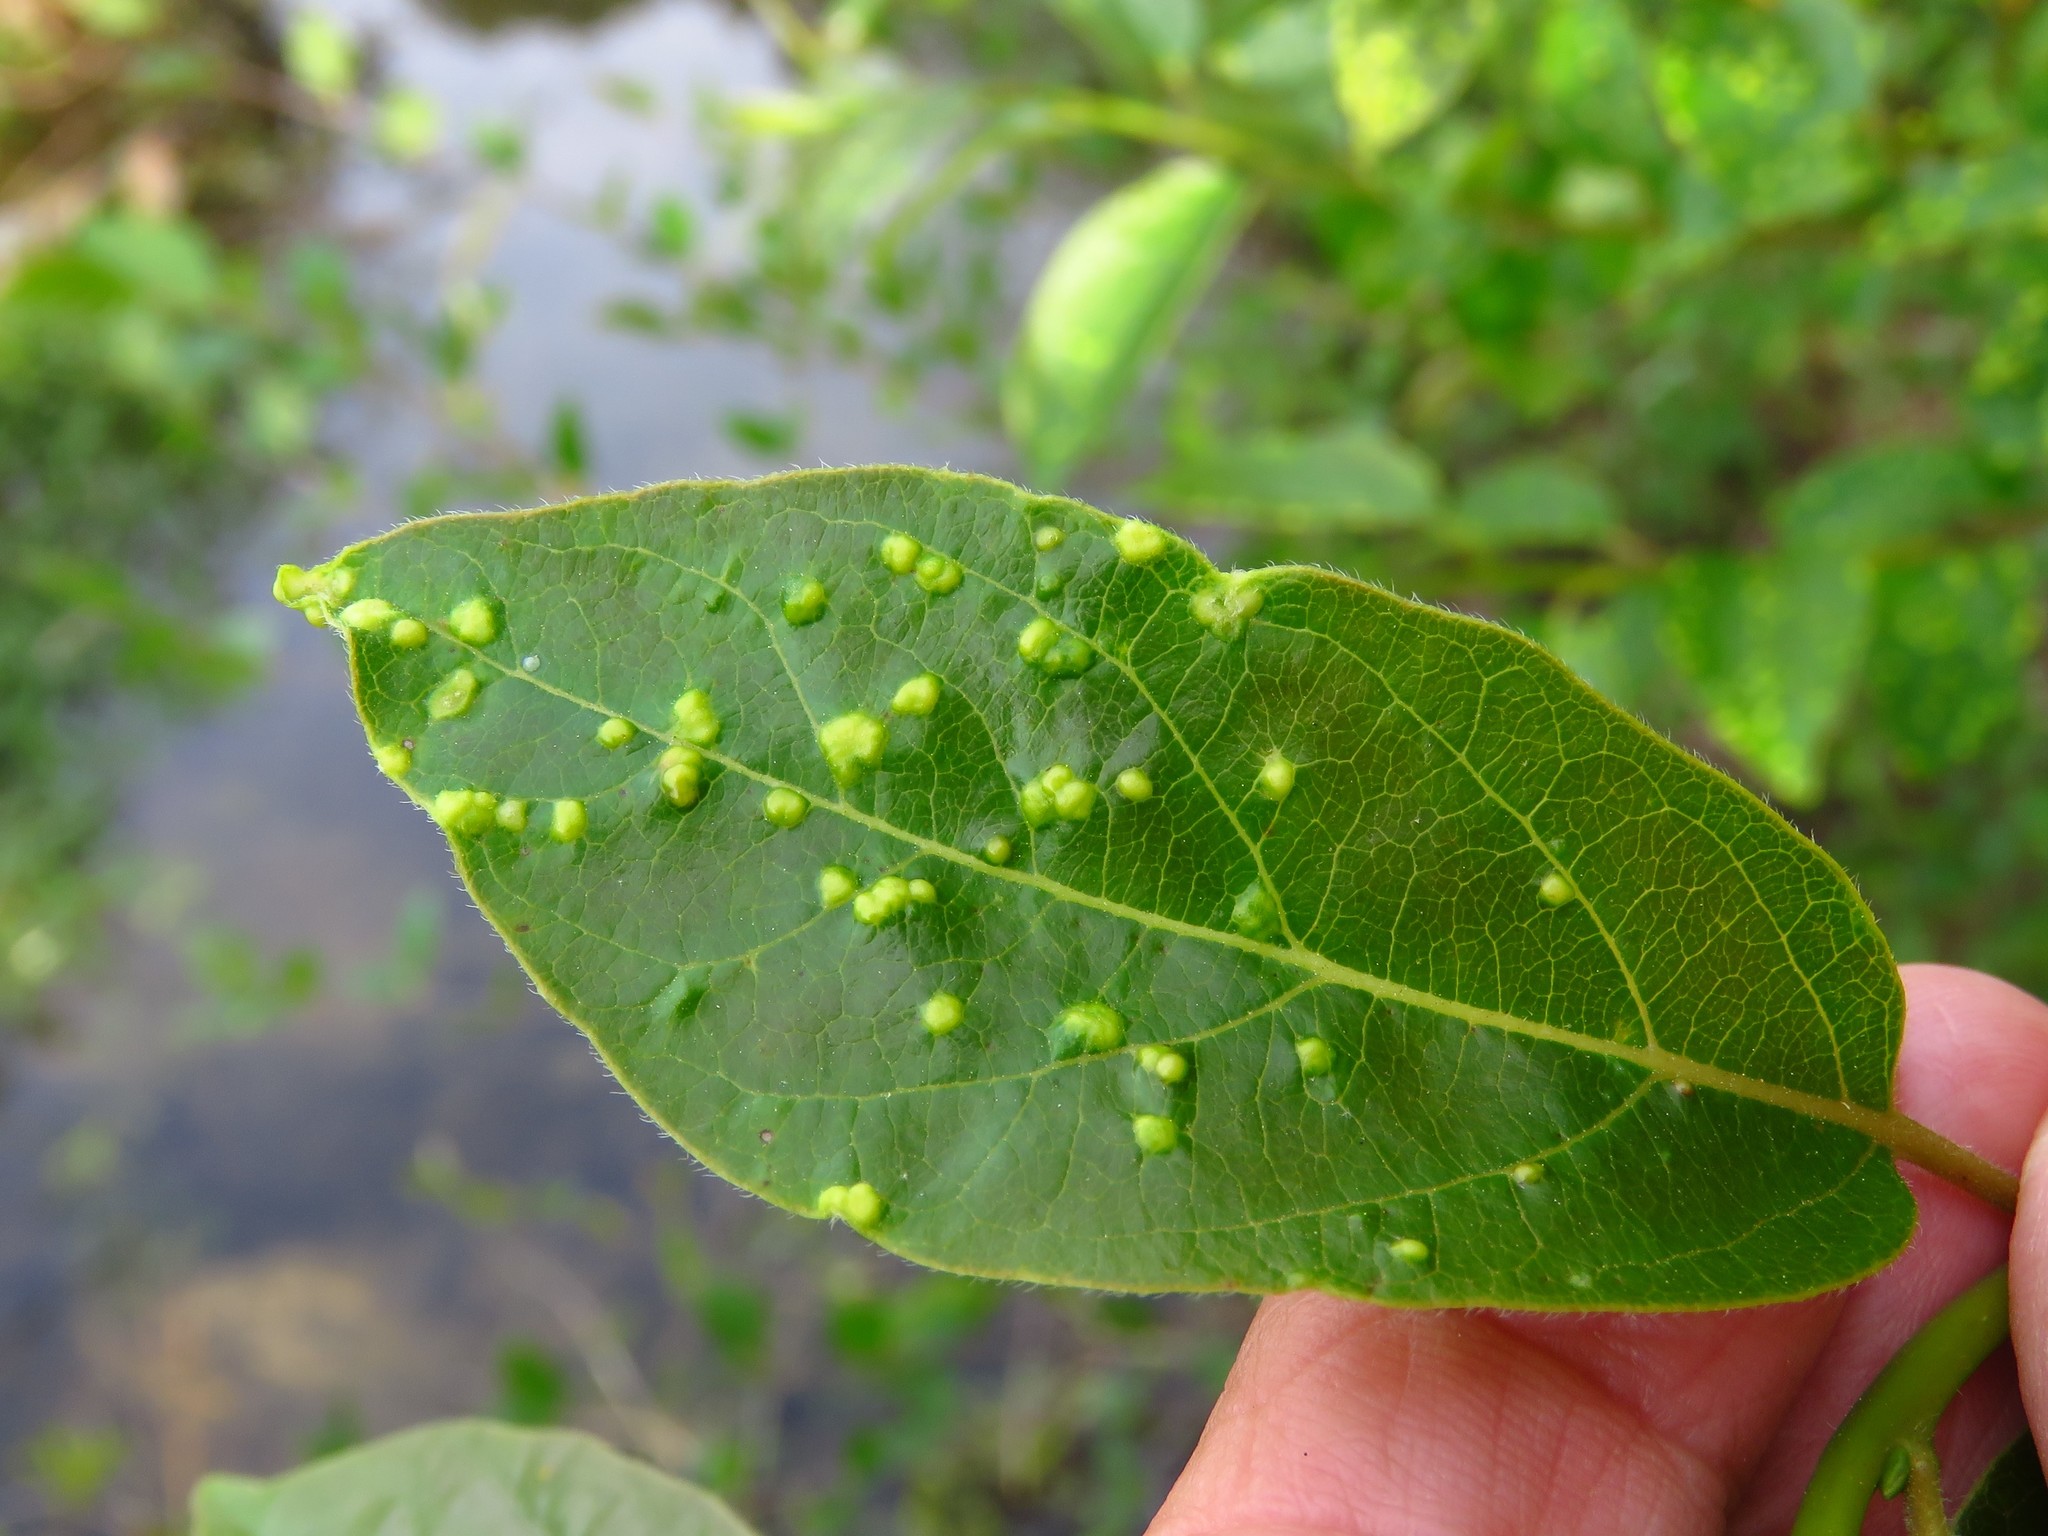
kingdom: Animalia
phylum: Arthropoda
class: Arachnida
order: Trombidiformes
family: Eriophyidae
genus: Aceria
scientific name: Aceria
